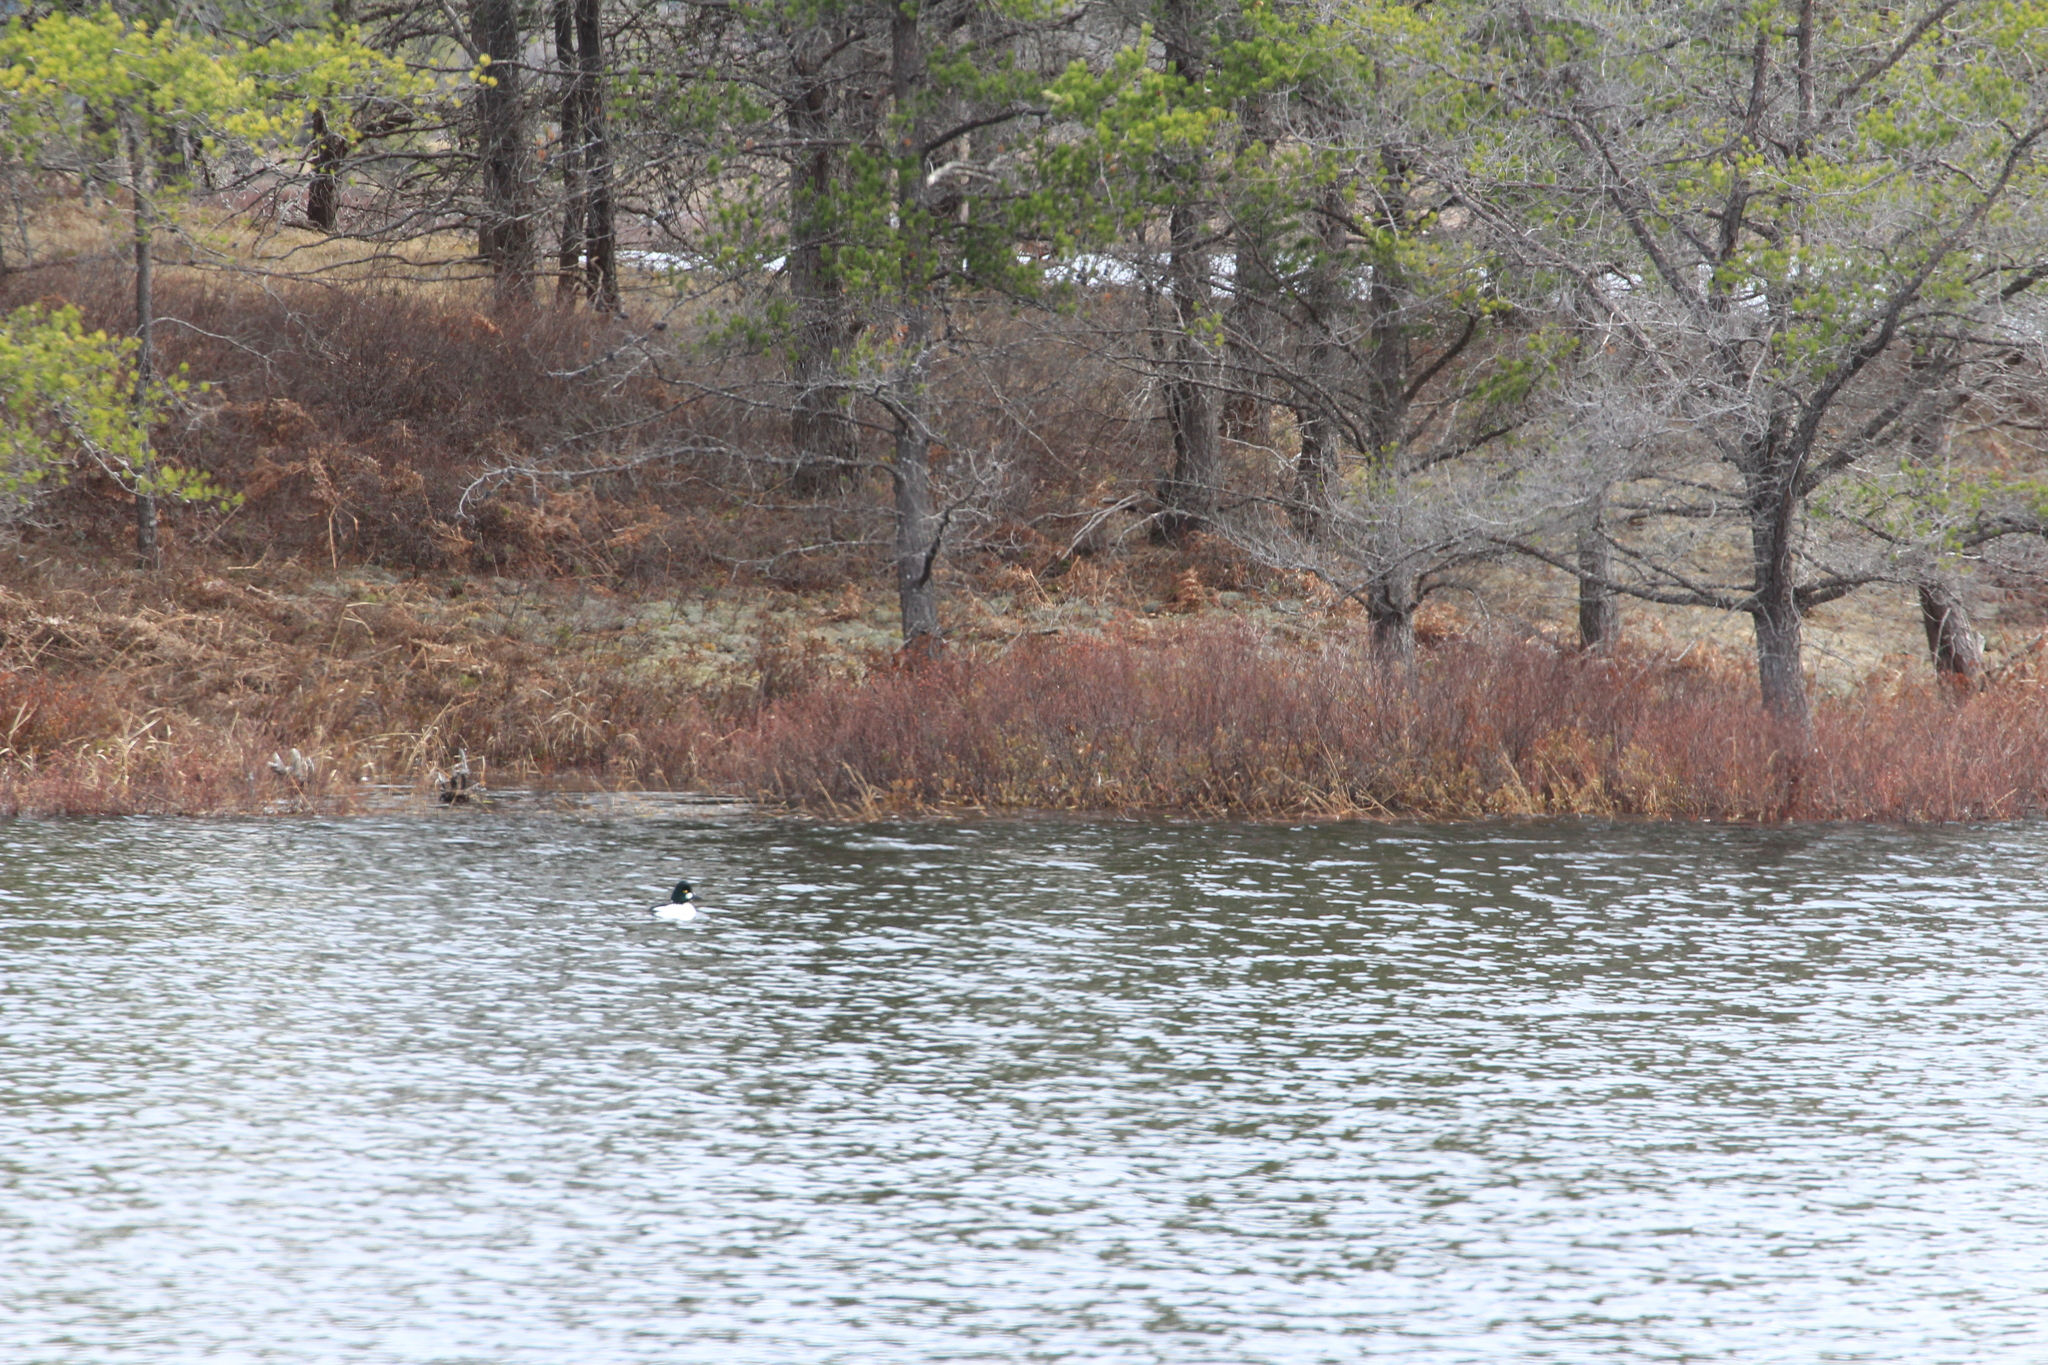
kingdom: Animalia
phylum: Chordata
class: Aves
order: Anseriformes
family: Anatidae
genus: Bucephala
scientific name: Bucephala clangula
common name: Common goldeneye
